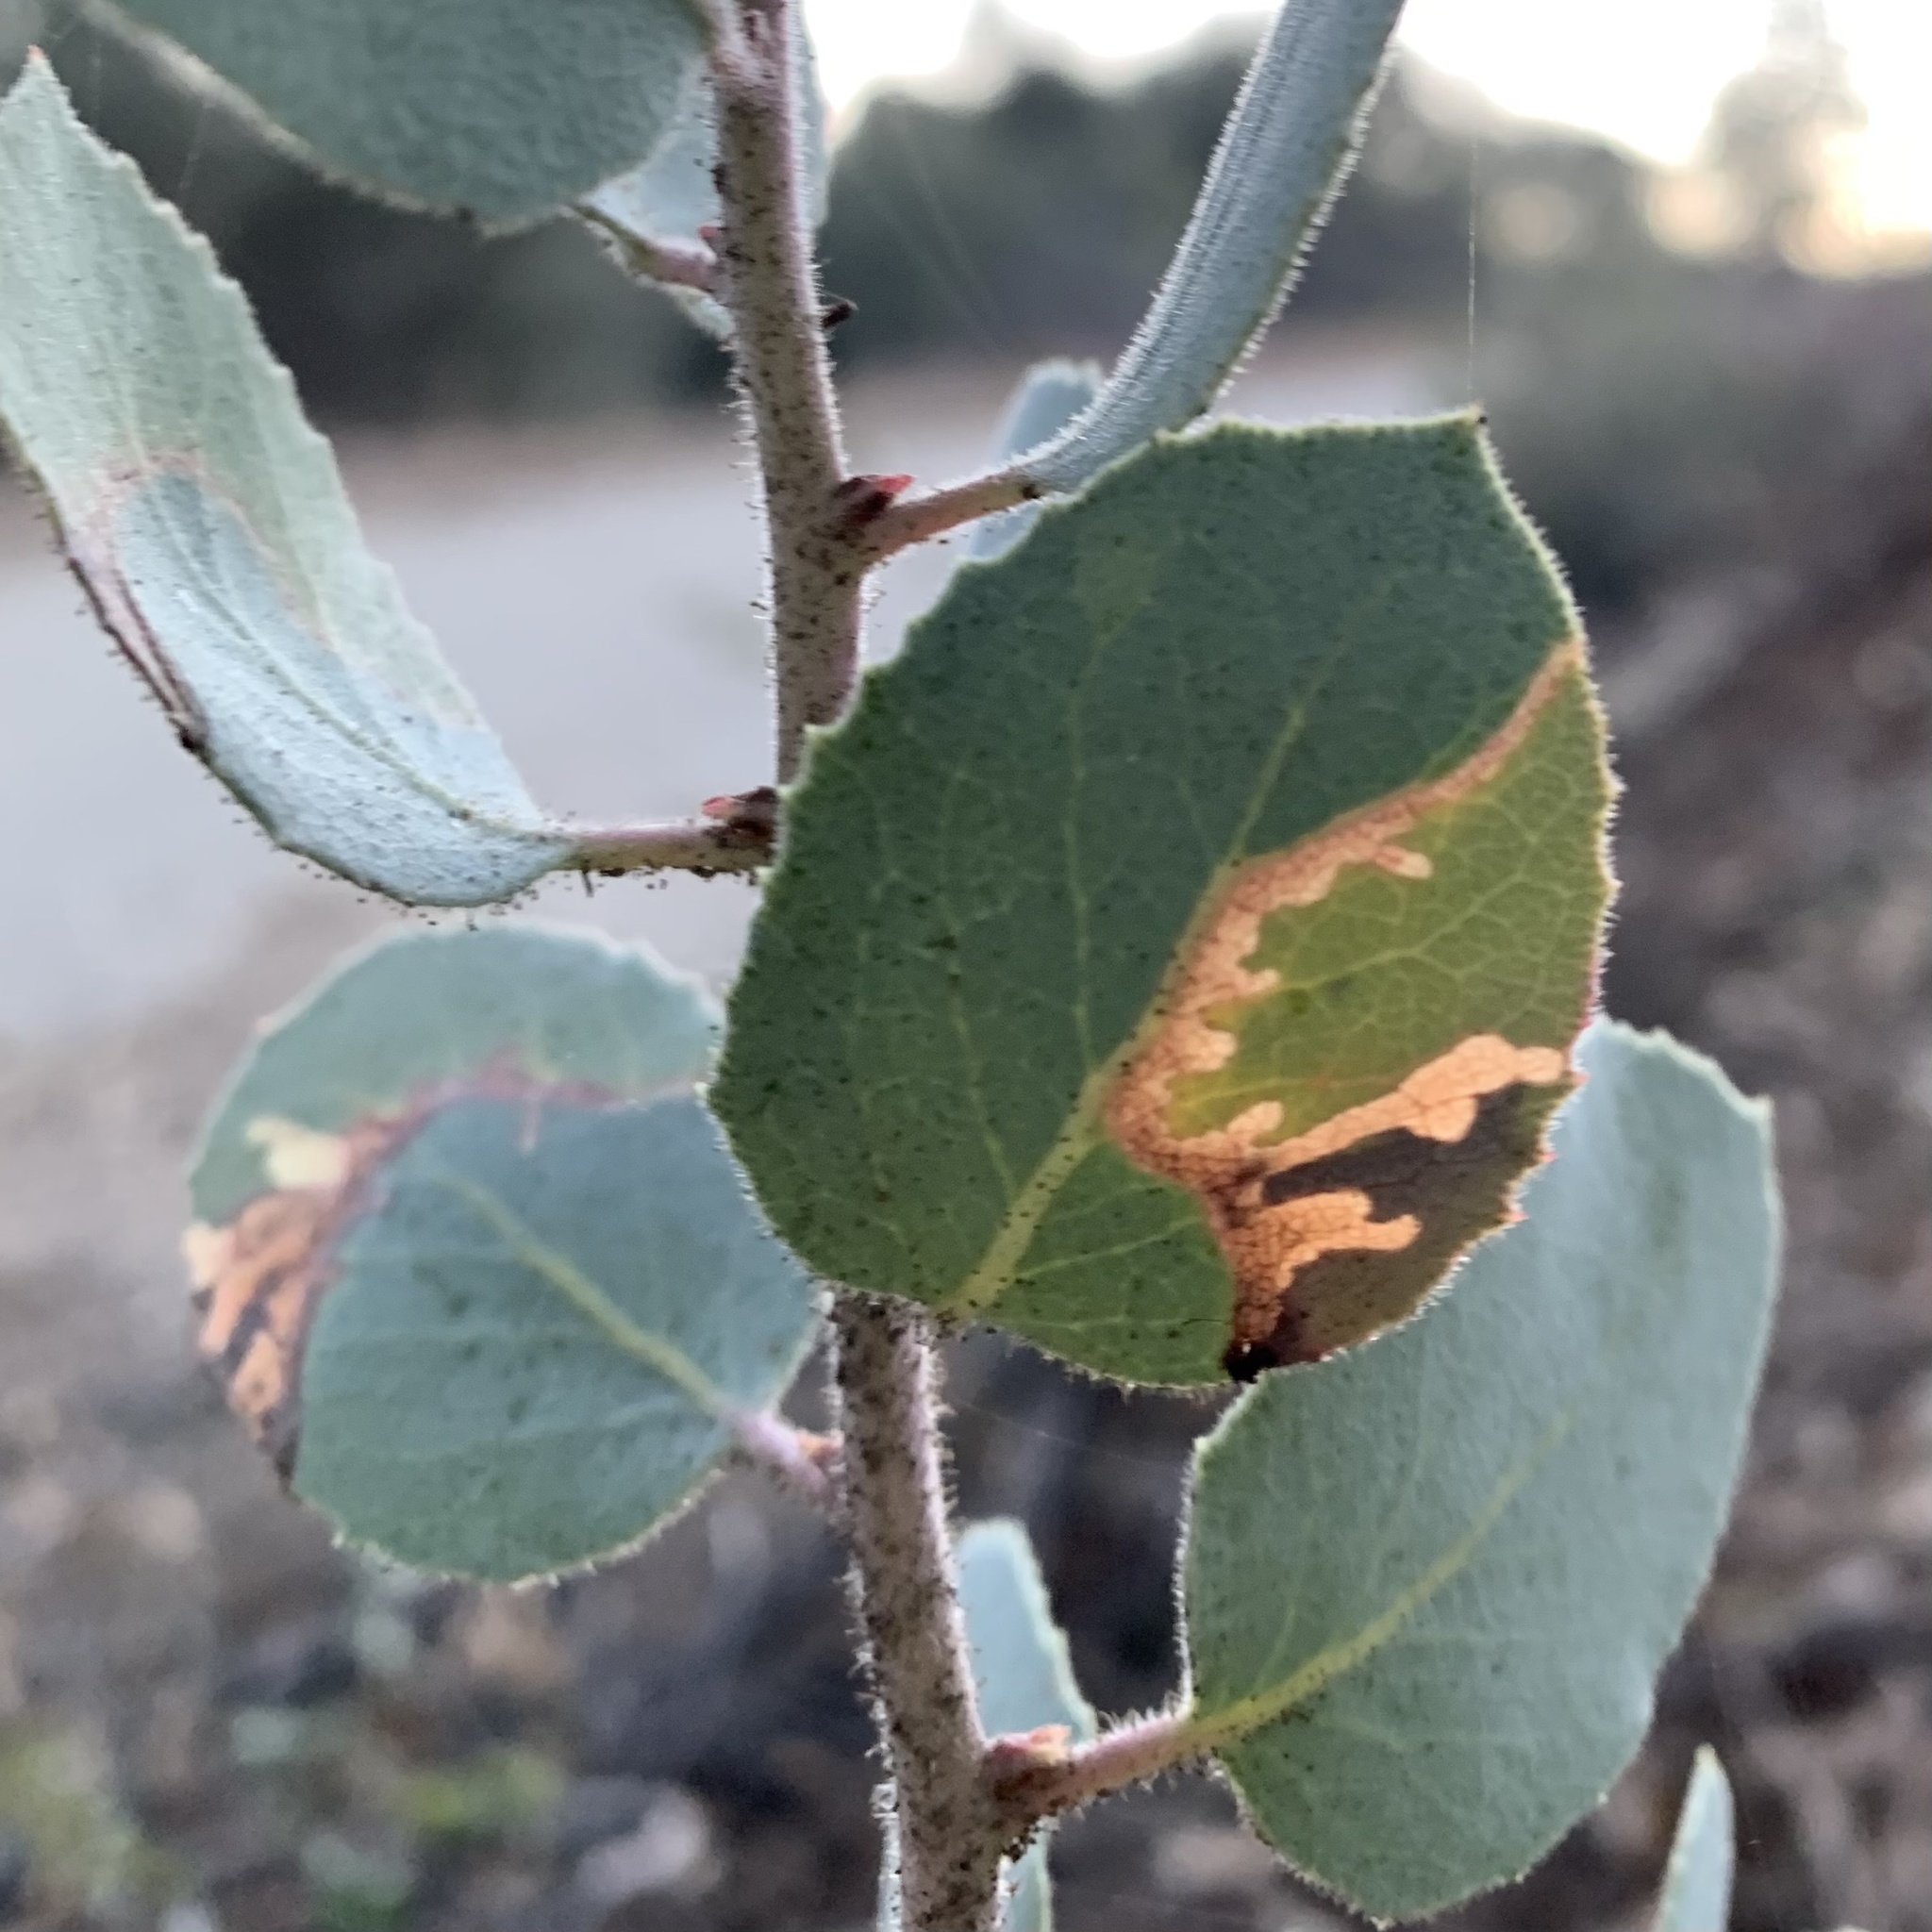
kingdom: Animalia
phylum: Arthropoda
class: Insecta
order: Lepidoptera
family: Tortricidae
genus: Epinotia
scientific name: Epinotia nigralbana
